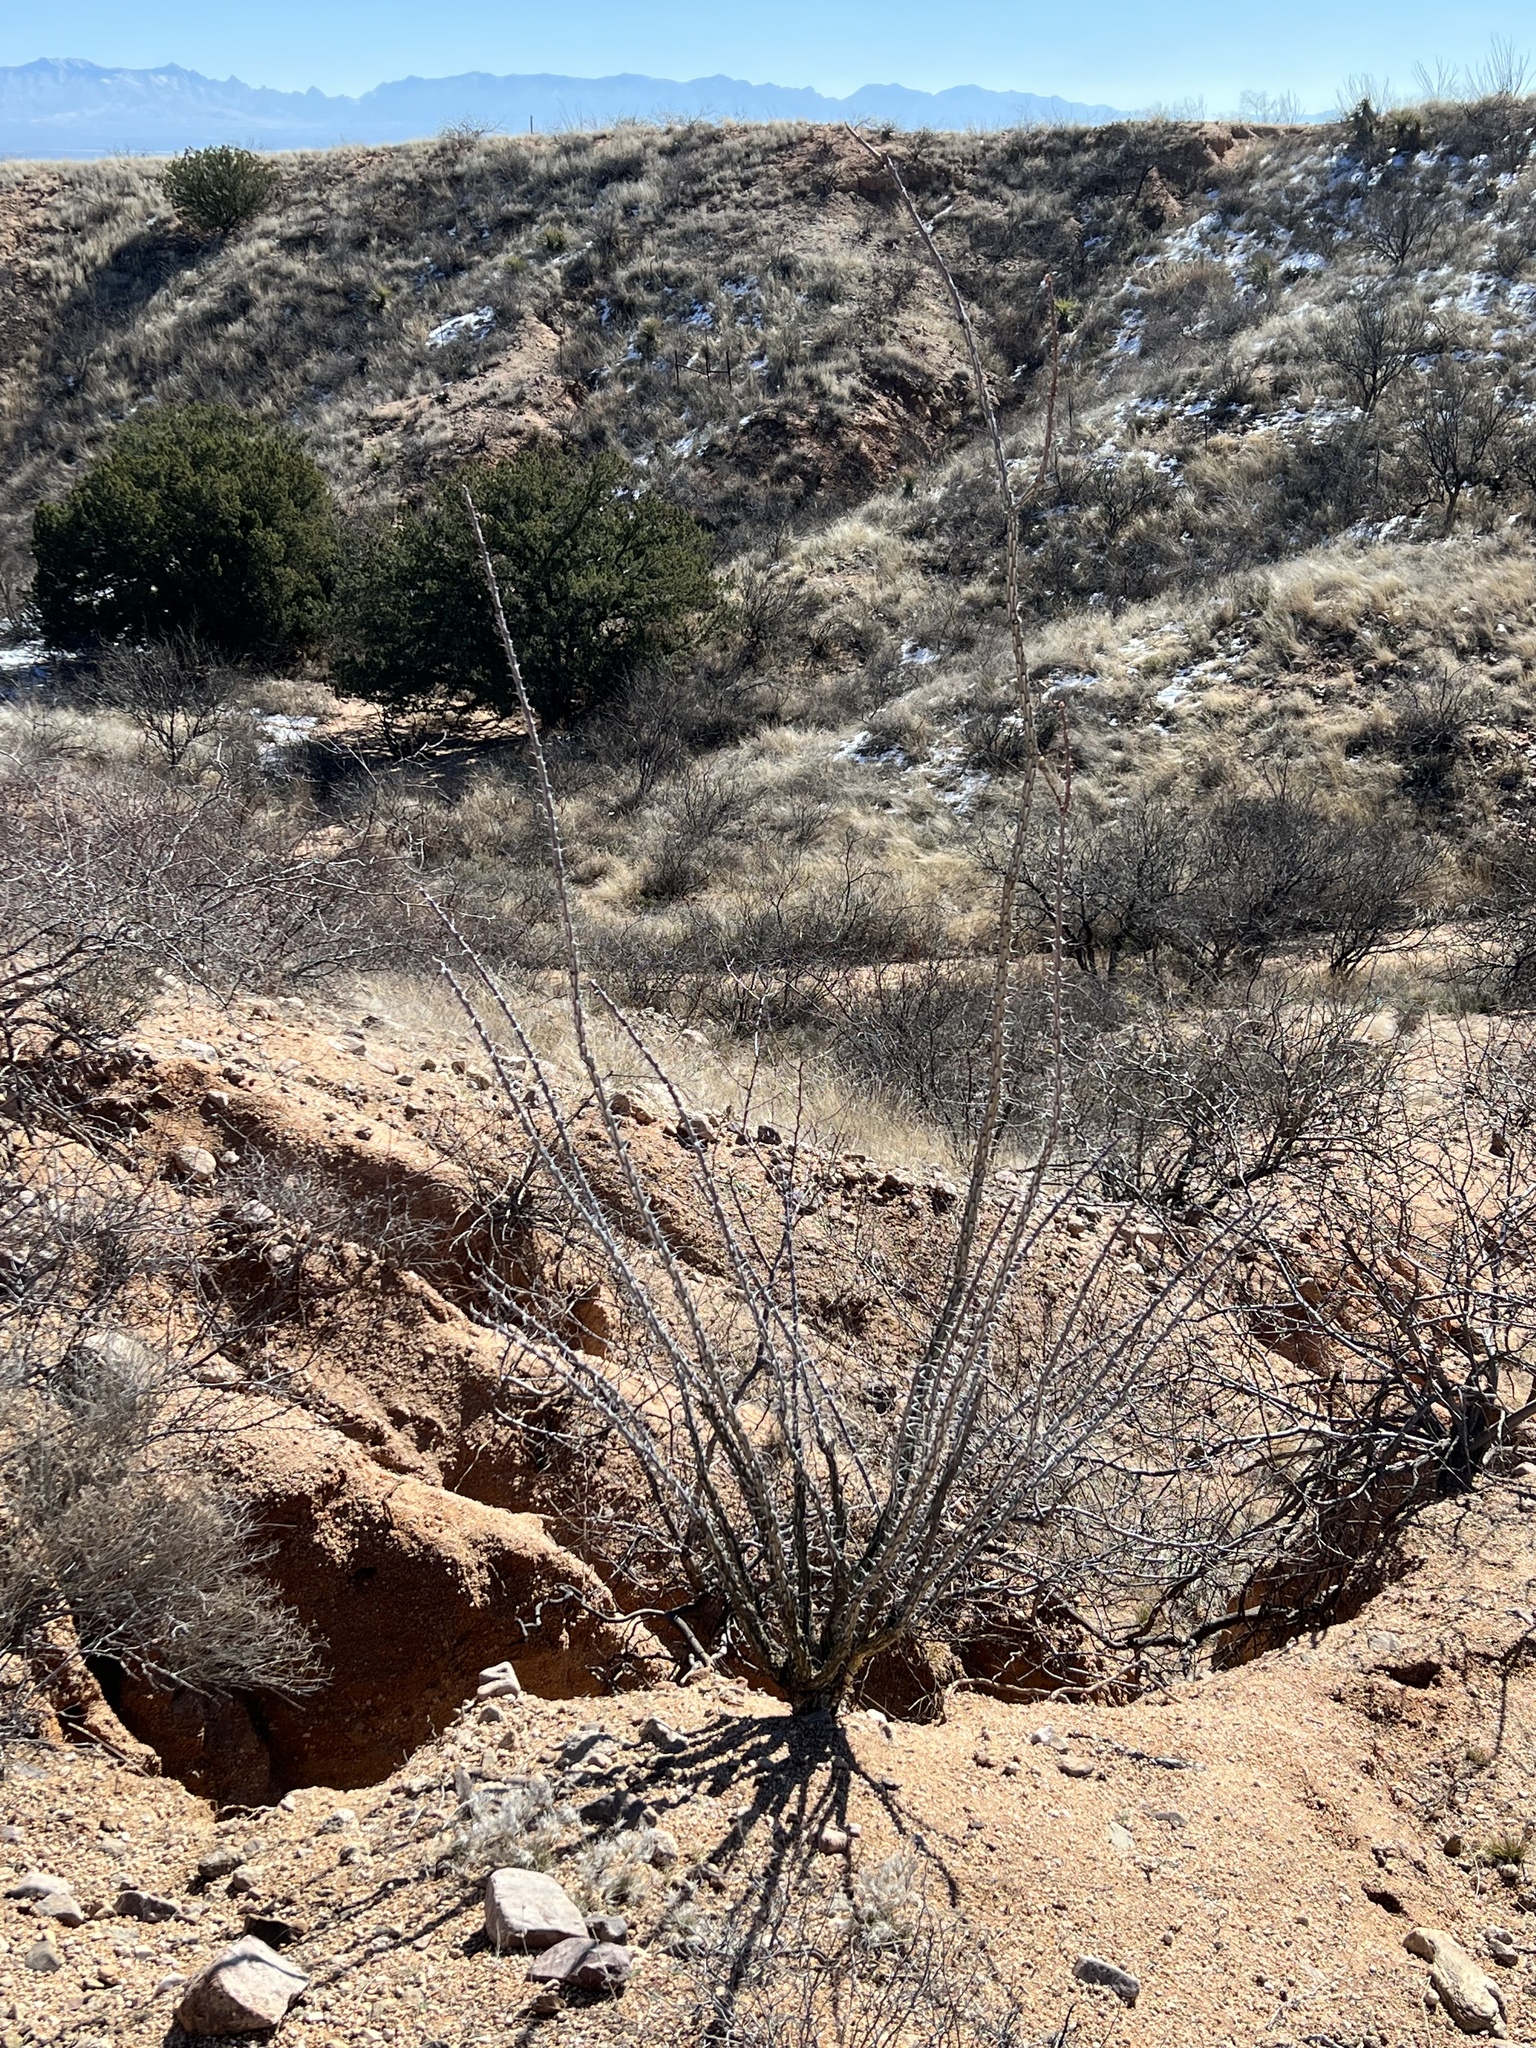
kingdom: Plantae
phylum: Tracheophyta
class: Magnoliopsida
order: Ericales
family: Fouquieriaceae
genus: Fouquieria
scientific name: Fouquieria splendens
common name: Vine-cactus
